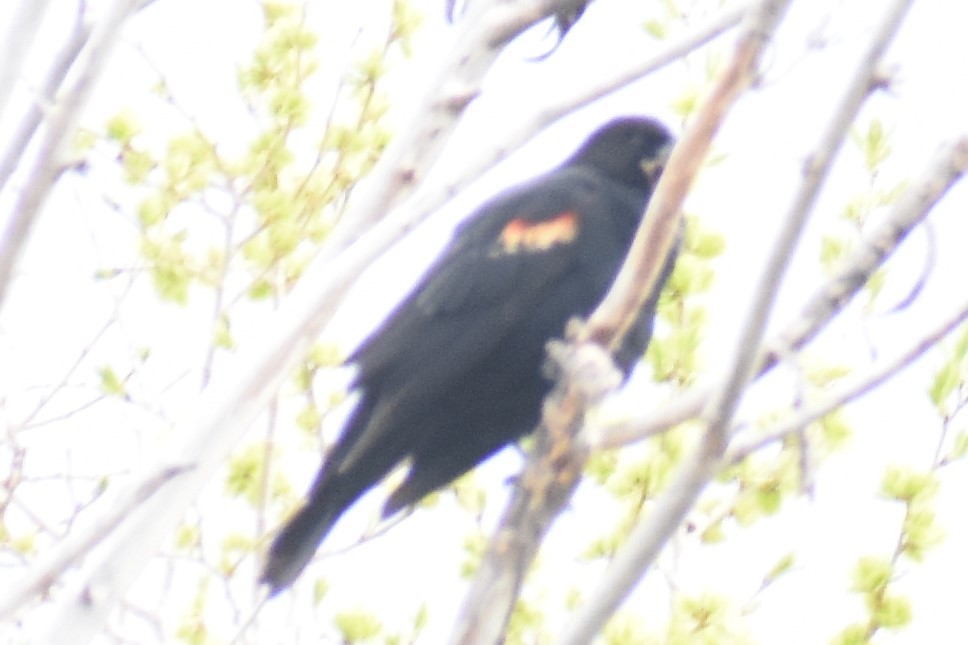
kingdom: Animalia
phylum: Chordata
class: Aves
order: Passeriformes
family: Icteridae
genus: Agelaius
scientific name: Agelaius phoeniceus
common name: Red-winged blackbird
